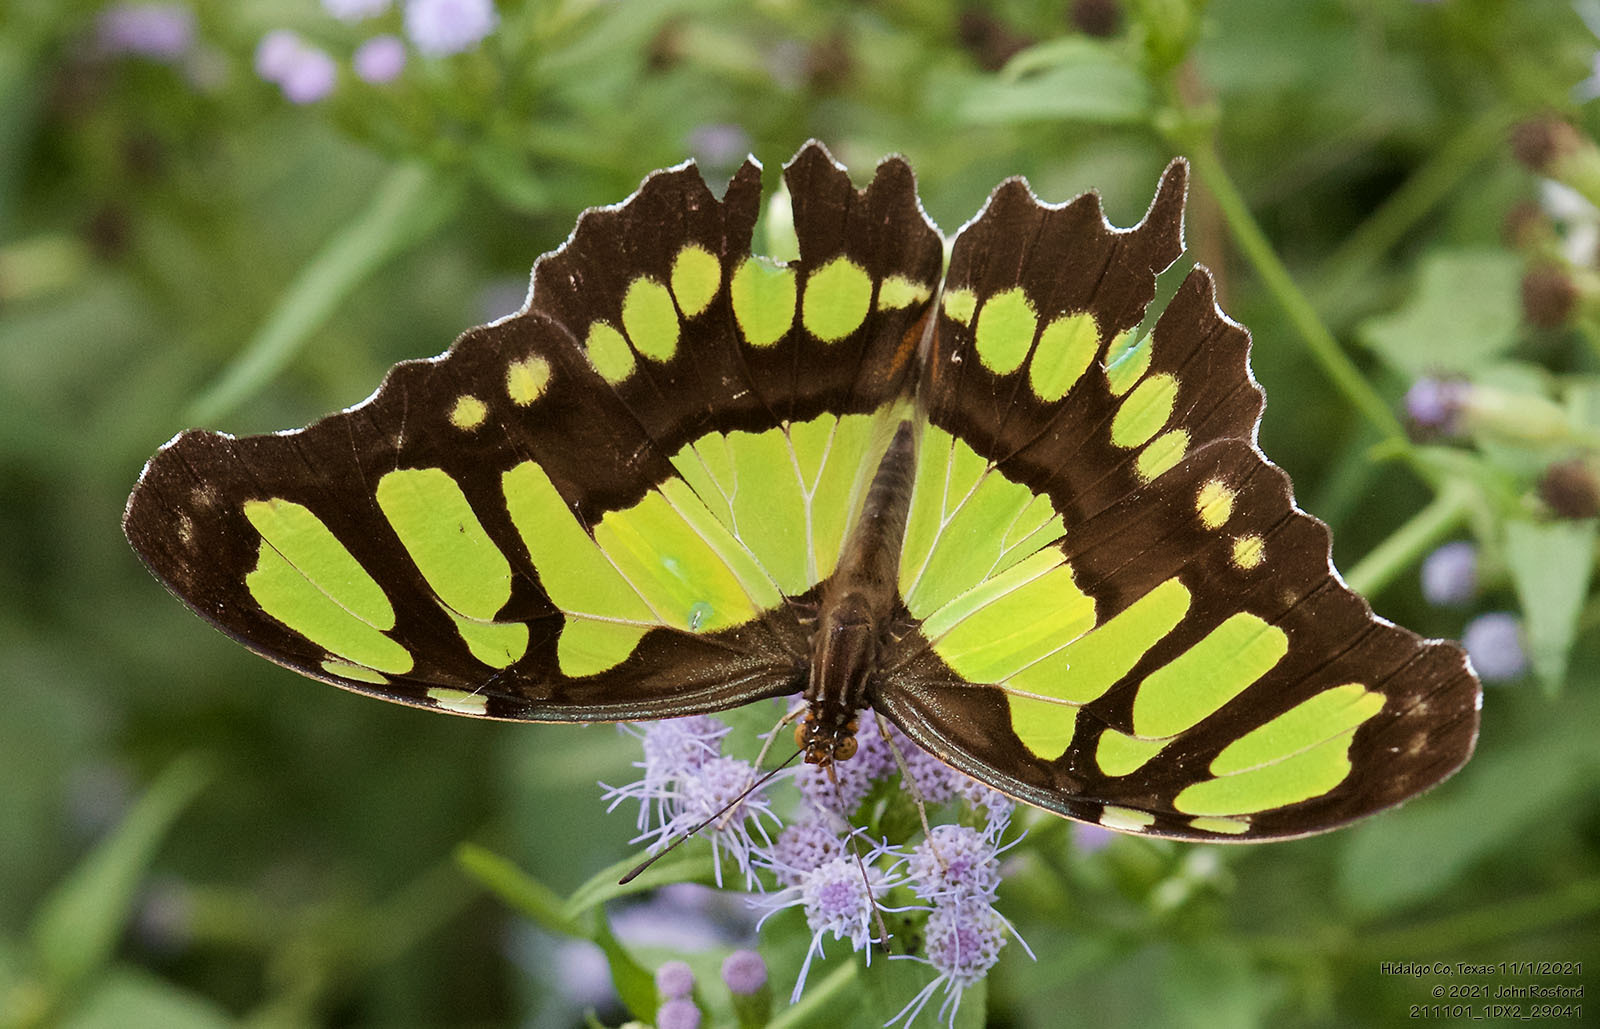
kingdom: Animalia
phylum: Arthropoda
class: Insecta
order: Lepidoptera
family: Nymphalidae
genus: Siproeta
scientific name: Siproeta stelenes
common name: Malachite
